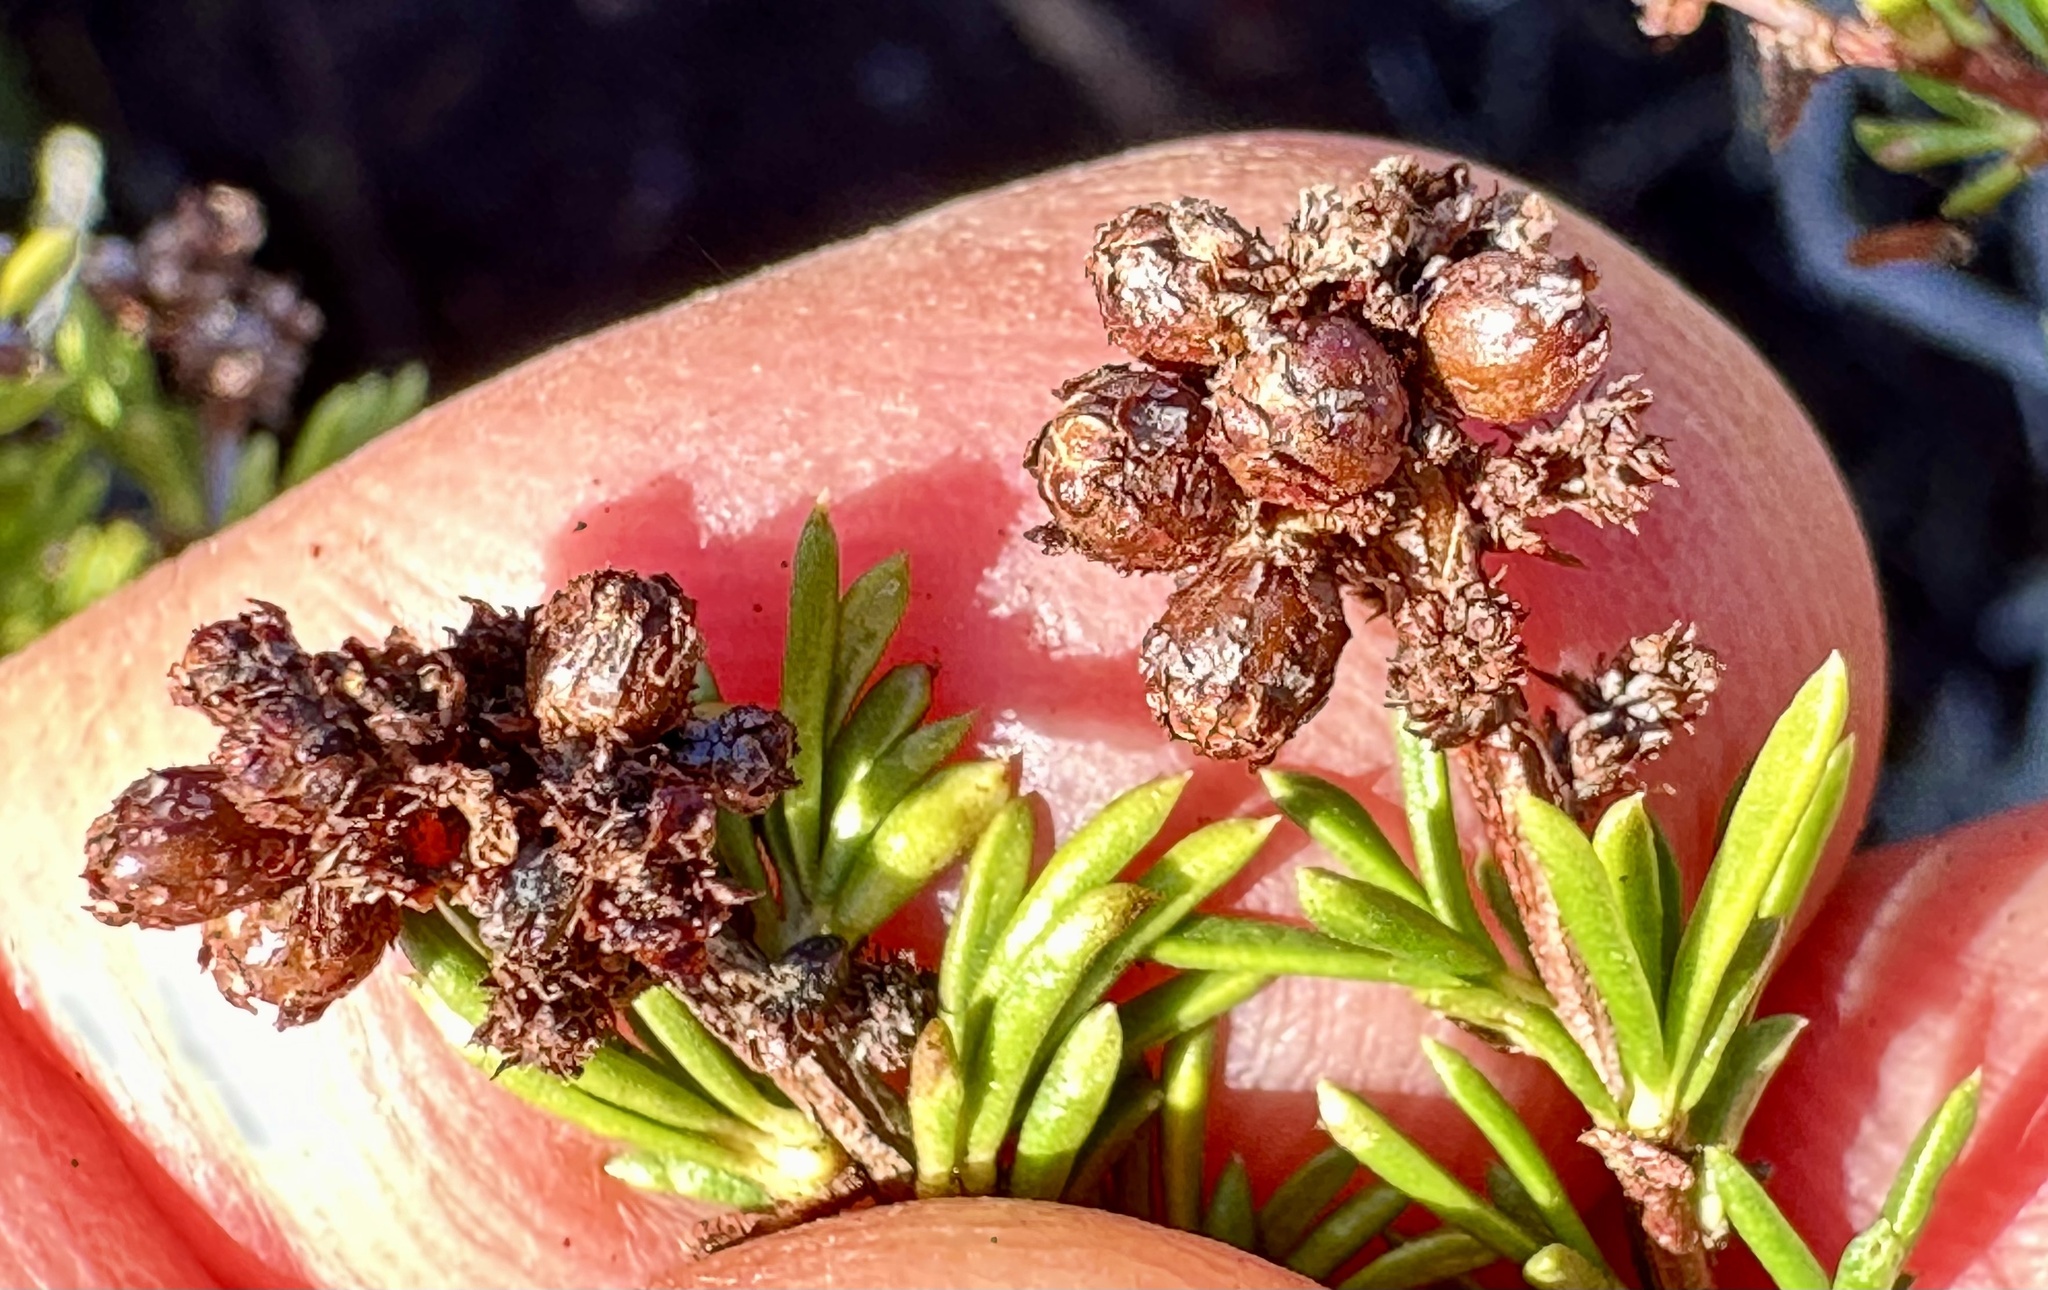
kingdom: Animalia
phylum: Arthropoda
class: Insecta
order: Diptera
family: Cecidomyiidae
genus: Asphondylia
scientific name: Asphondylia adenostoma
